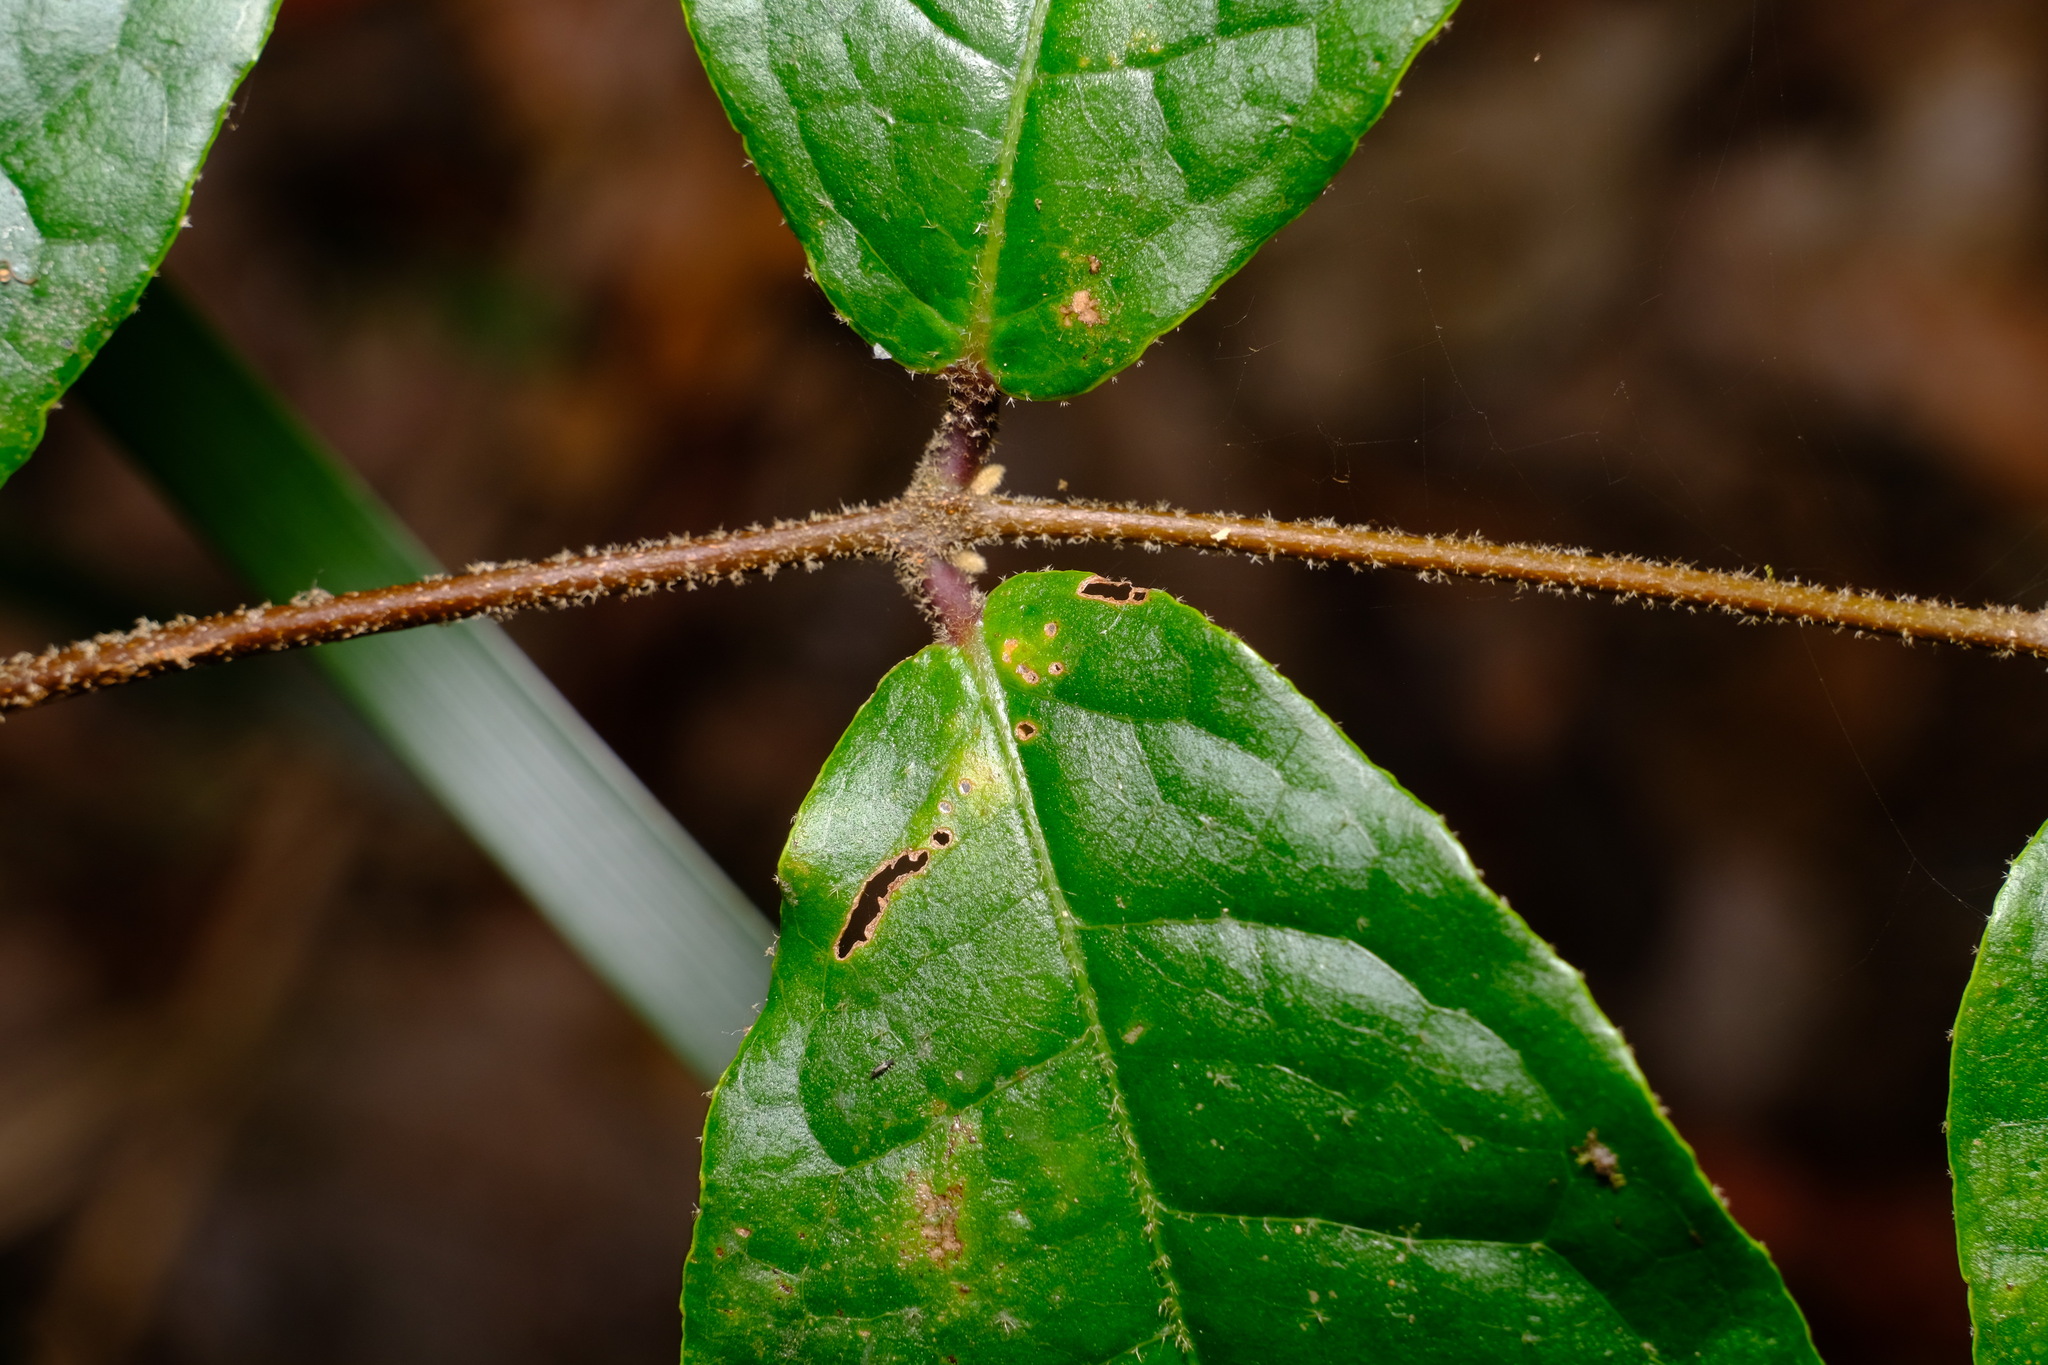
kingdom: Plantae
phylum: Tracheophyta
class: Magnoliopsida
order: Laurales
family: Monimiaceae
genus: Palmeria
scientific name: Palmeria scandens
